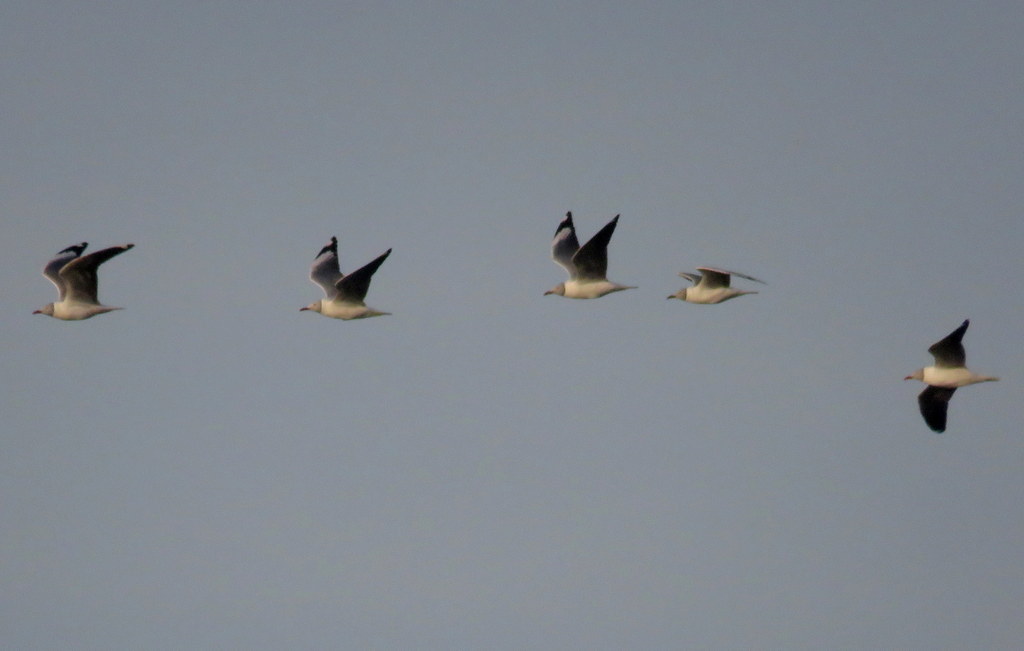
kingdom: Animalia
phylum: Chordata
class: Aves
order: Charadriiformes
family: Laridae
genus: Chroicocephalus
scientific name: Chroicocephalus cirrocephalus
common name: Grey-headed gull
